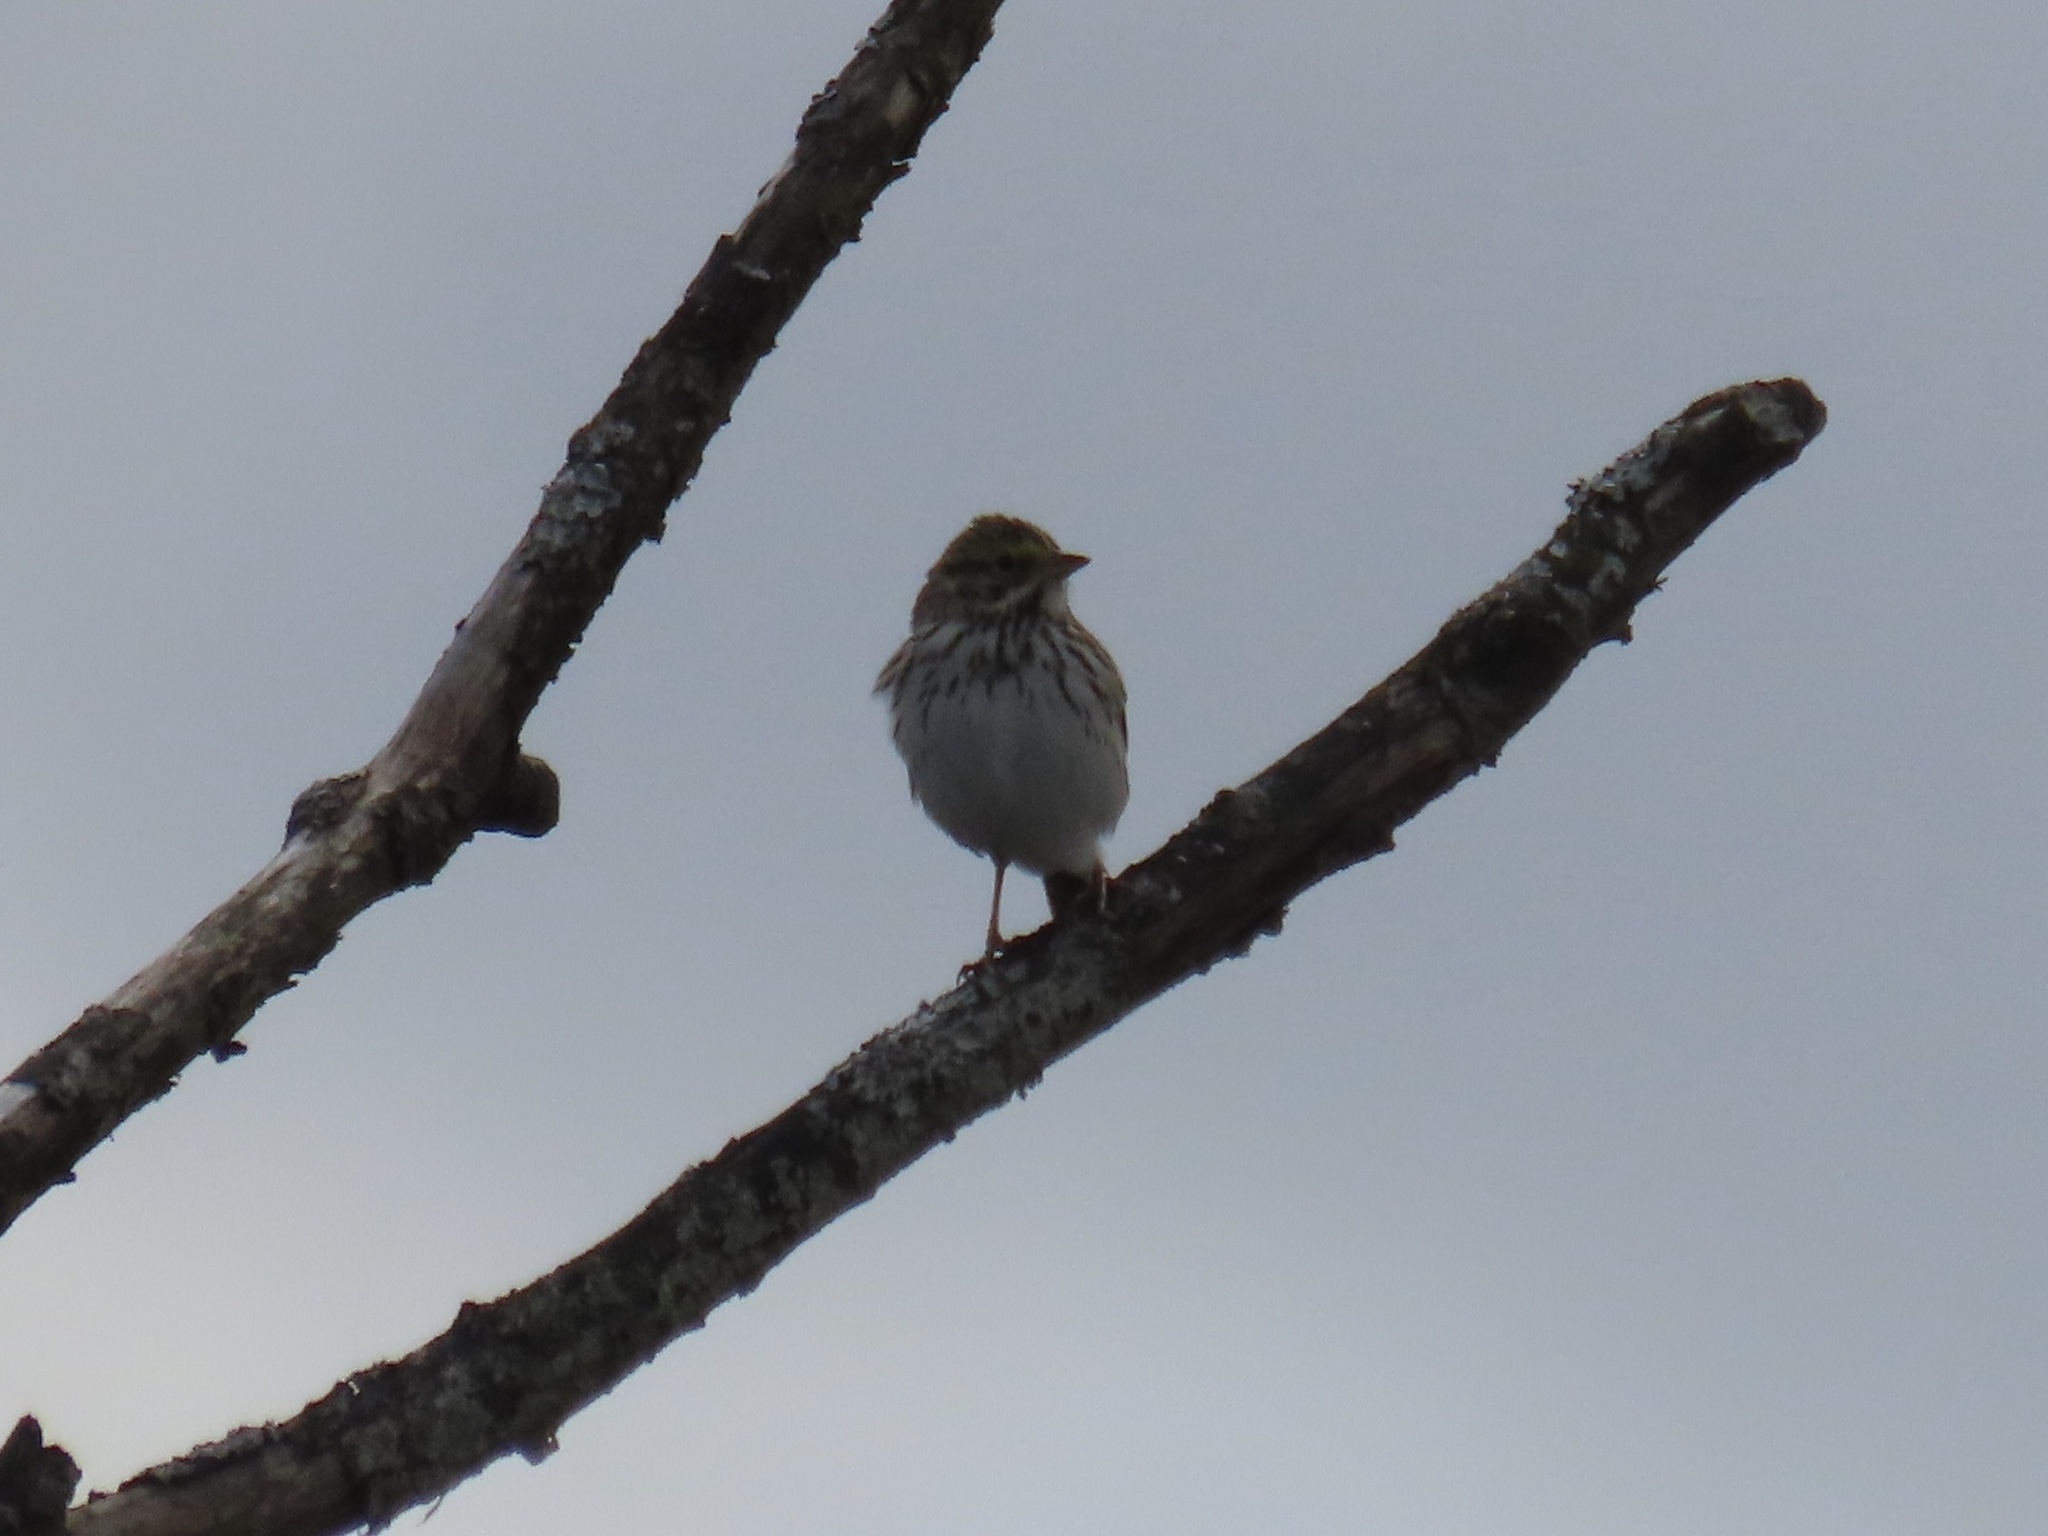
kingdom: Animalia
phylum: Chordata
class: Aves
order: Passeriformes
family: Passerellidae
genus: Passerculus
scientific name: Passerculus sandwichensis
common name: Savannah sparrow
